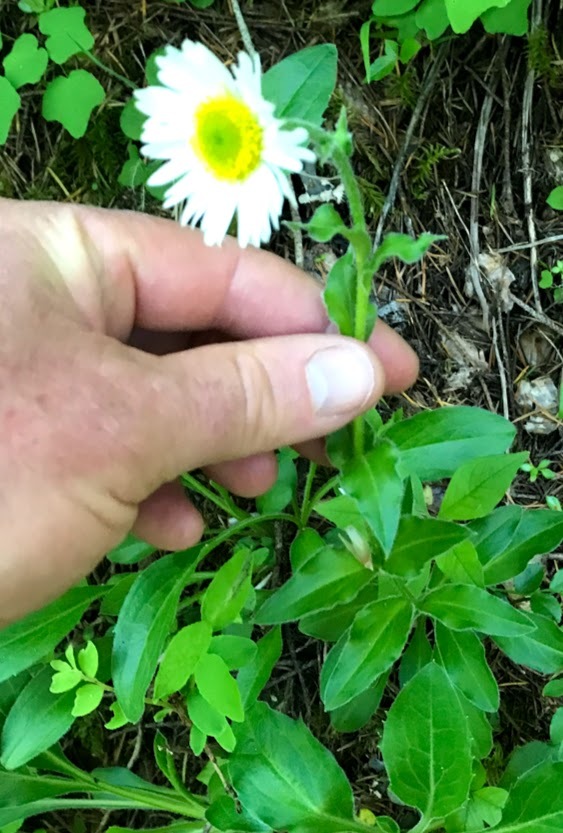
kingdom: Plantae
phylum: Tracheophyta
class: Magnoliopsida
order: Asterales
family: Asteraceae
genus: Erigeron
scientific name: Erigeron peregrinus
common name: Peregrine fleabane
